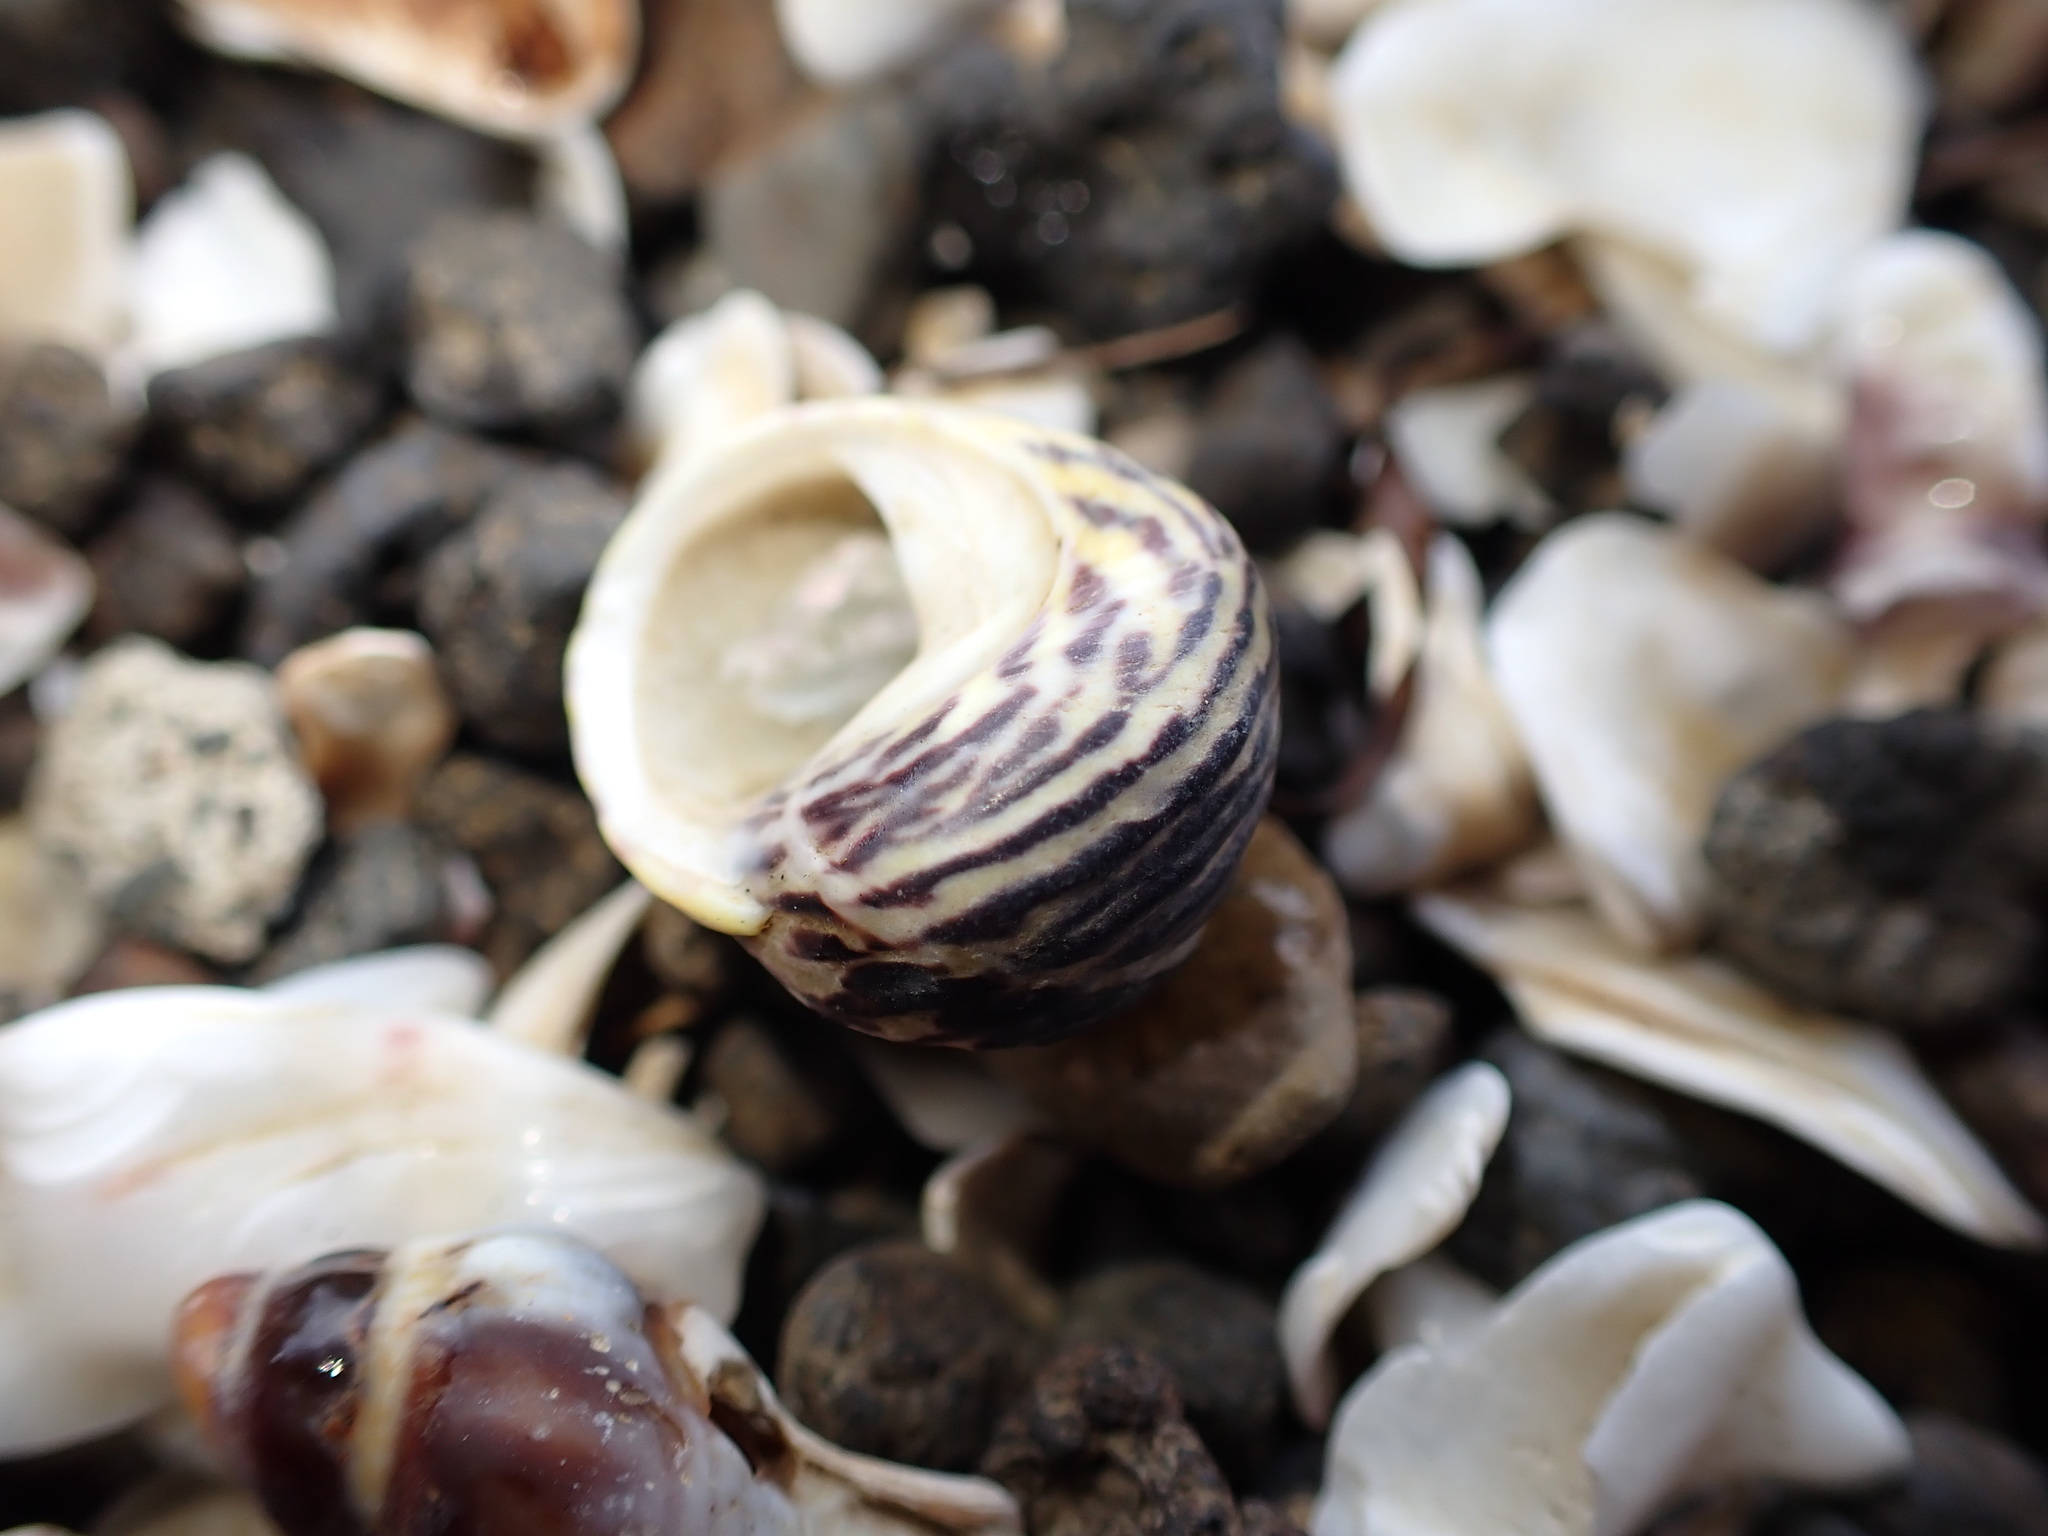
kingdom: Animalia
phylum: Mollusca
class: Gastropoda
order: Trochida
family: Trochidae
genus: Diloma
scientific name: Diloma subrostratum
